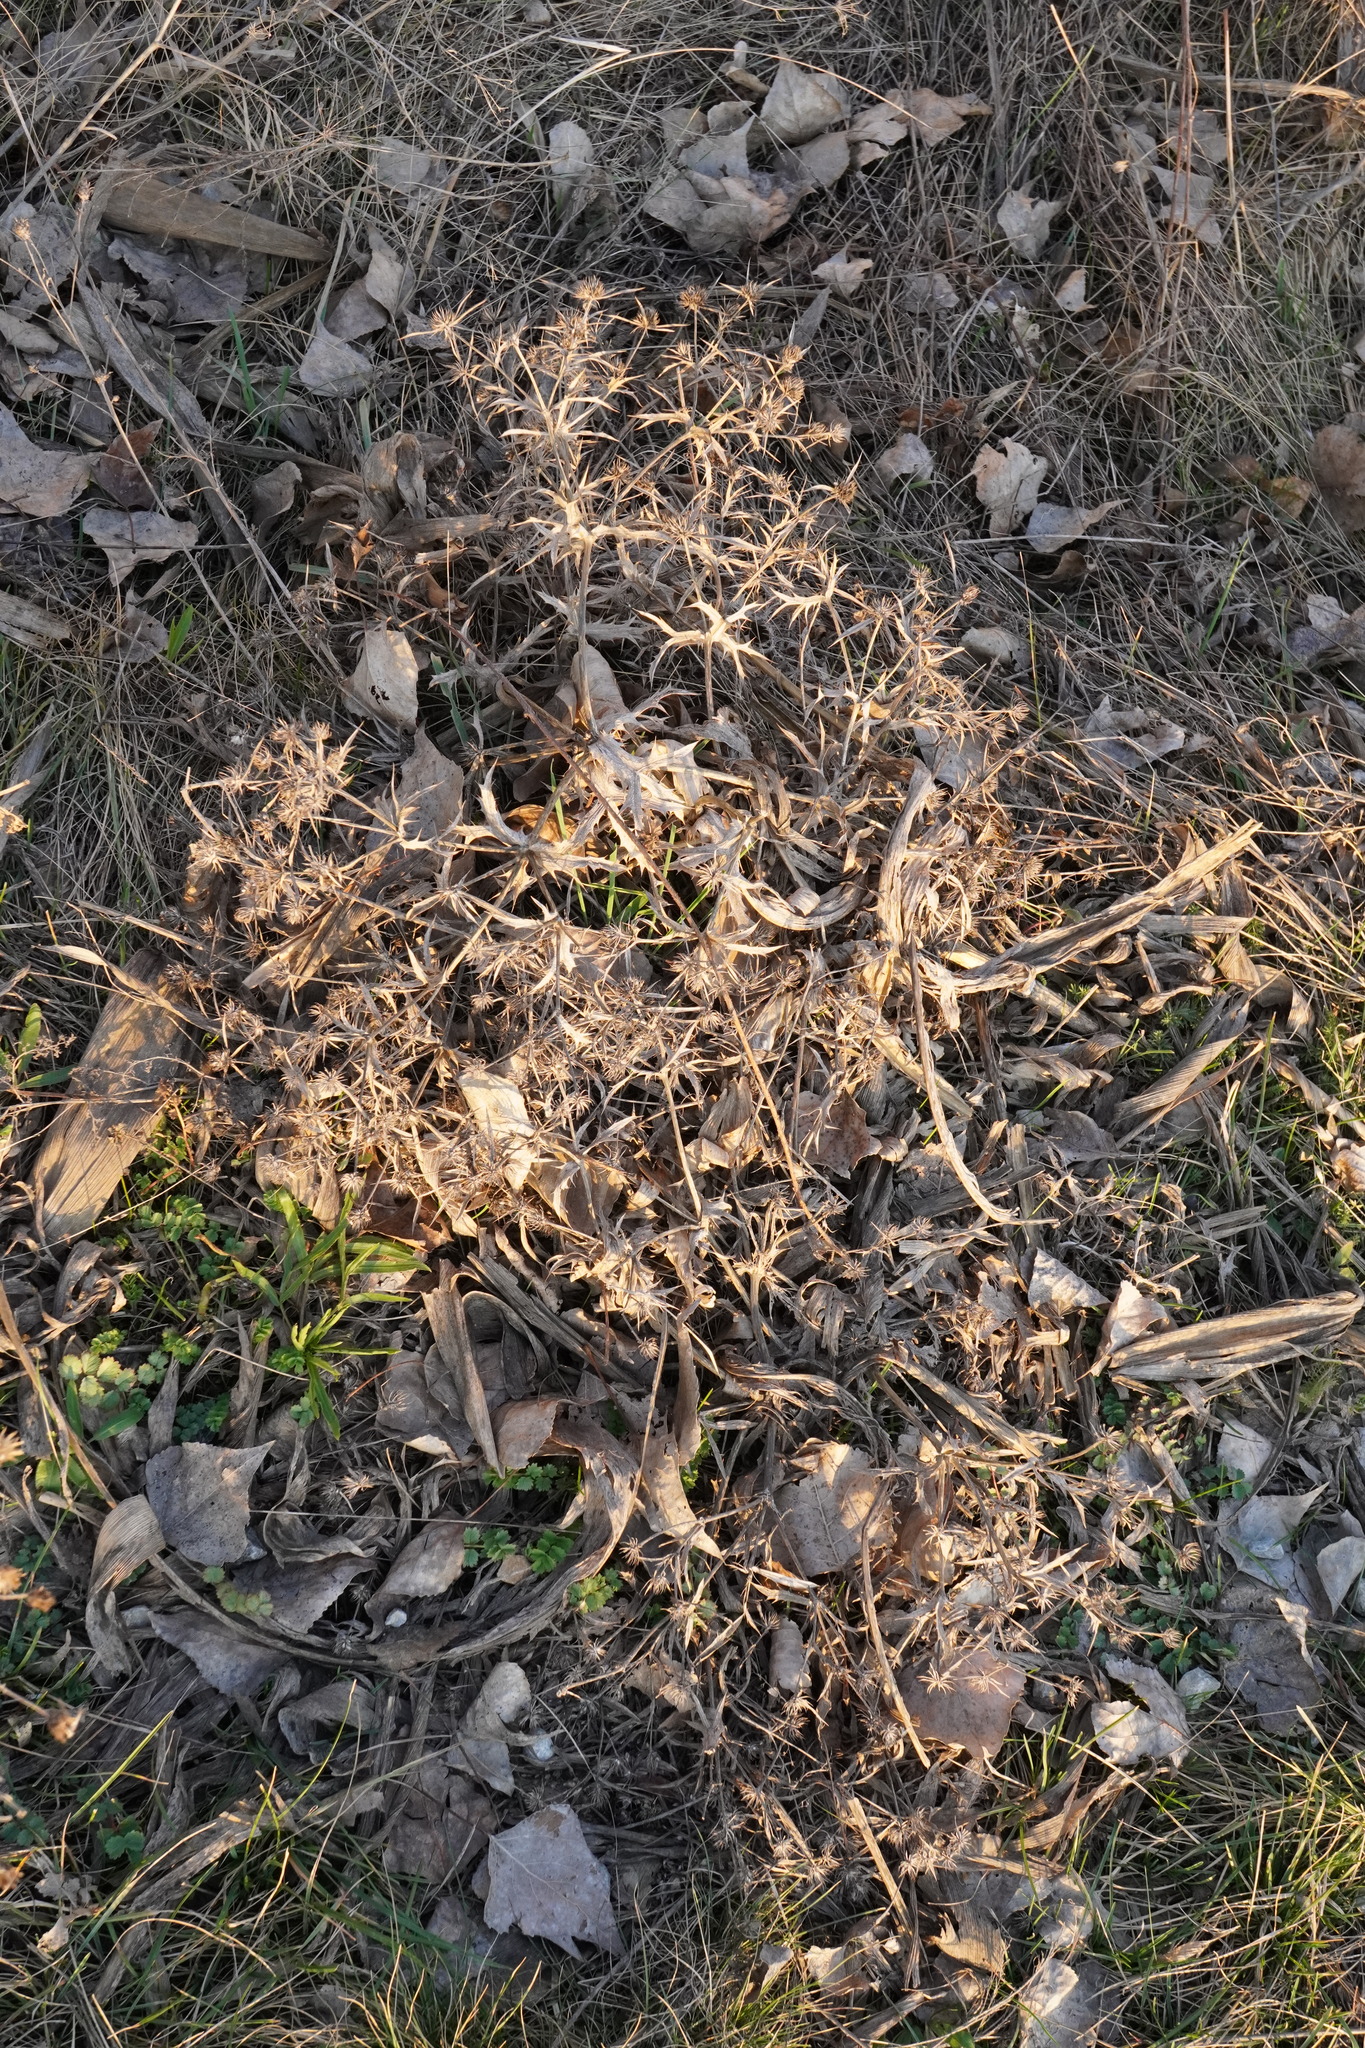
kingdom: Plantae
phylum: Tracheophyta
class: Magnoliopsida
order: Apiales
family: Apiaceae
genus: Eryngium
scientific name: Eryngium campestre
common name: Field eryngo
